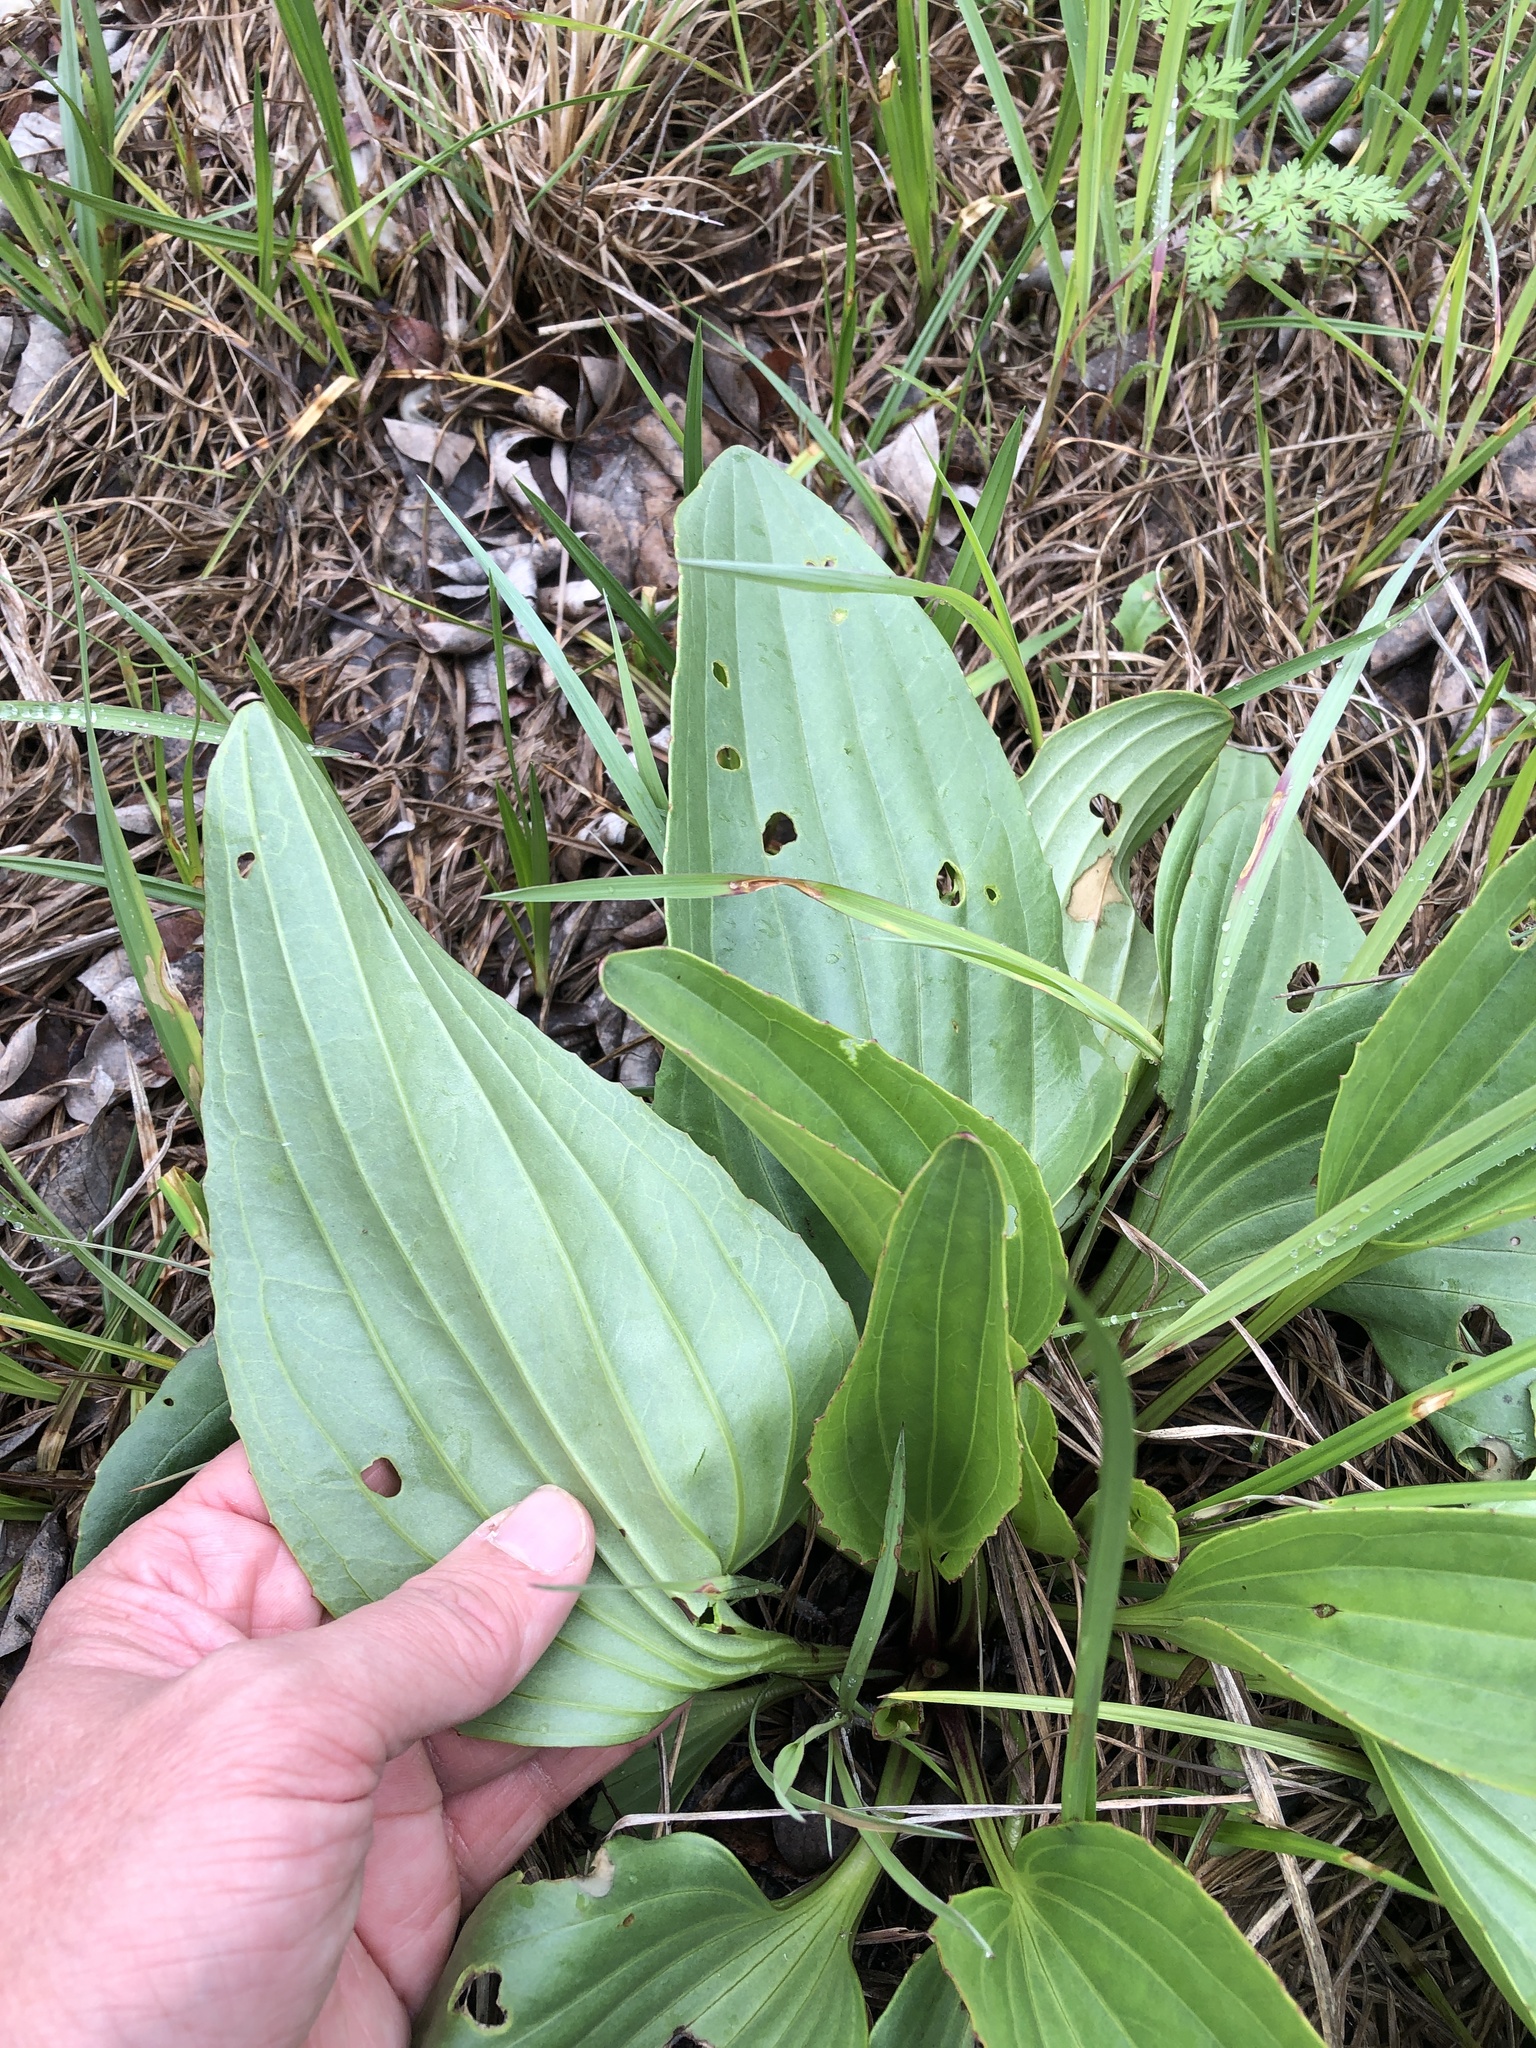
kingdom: Plantae
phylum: Tracheophyta
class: Magnoliopsida
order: Asterales
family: Asteraceae
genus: Arnoglossum
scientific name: Arnoglossum plantagineum
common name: Groove-stemmed indian-plantain
